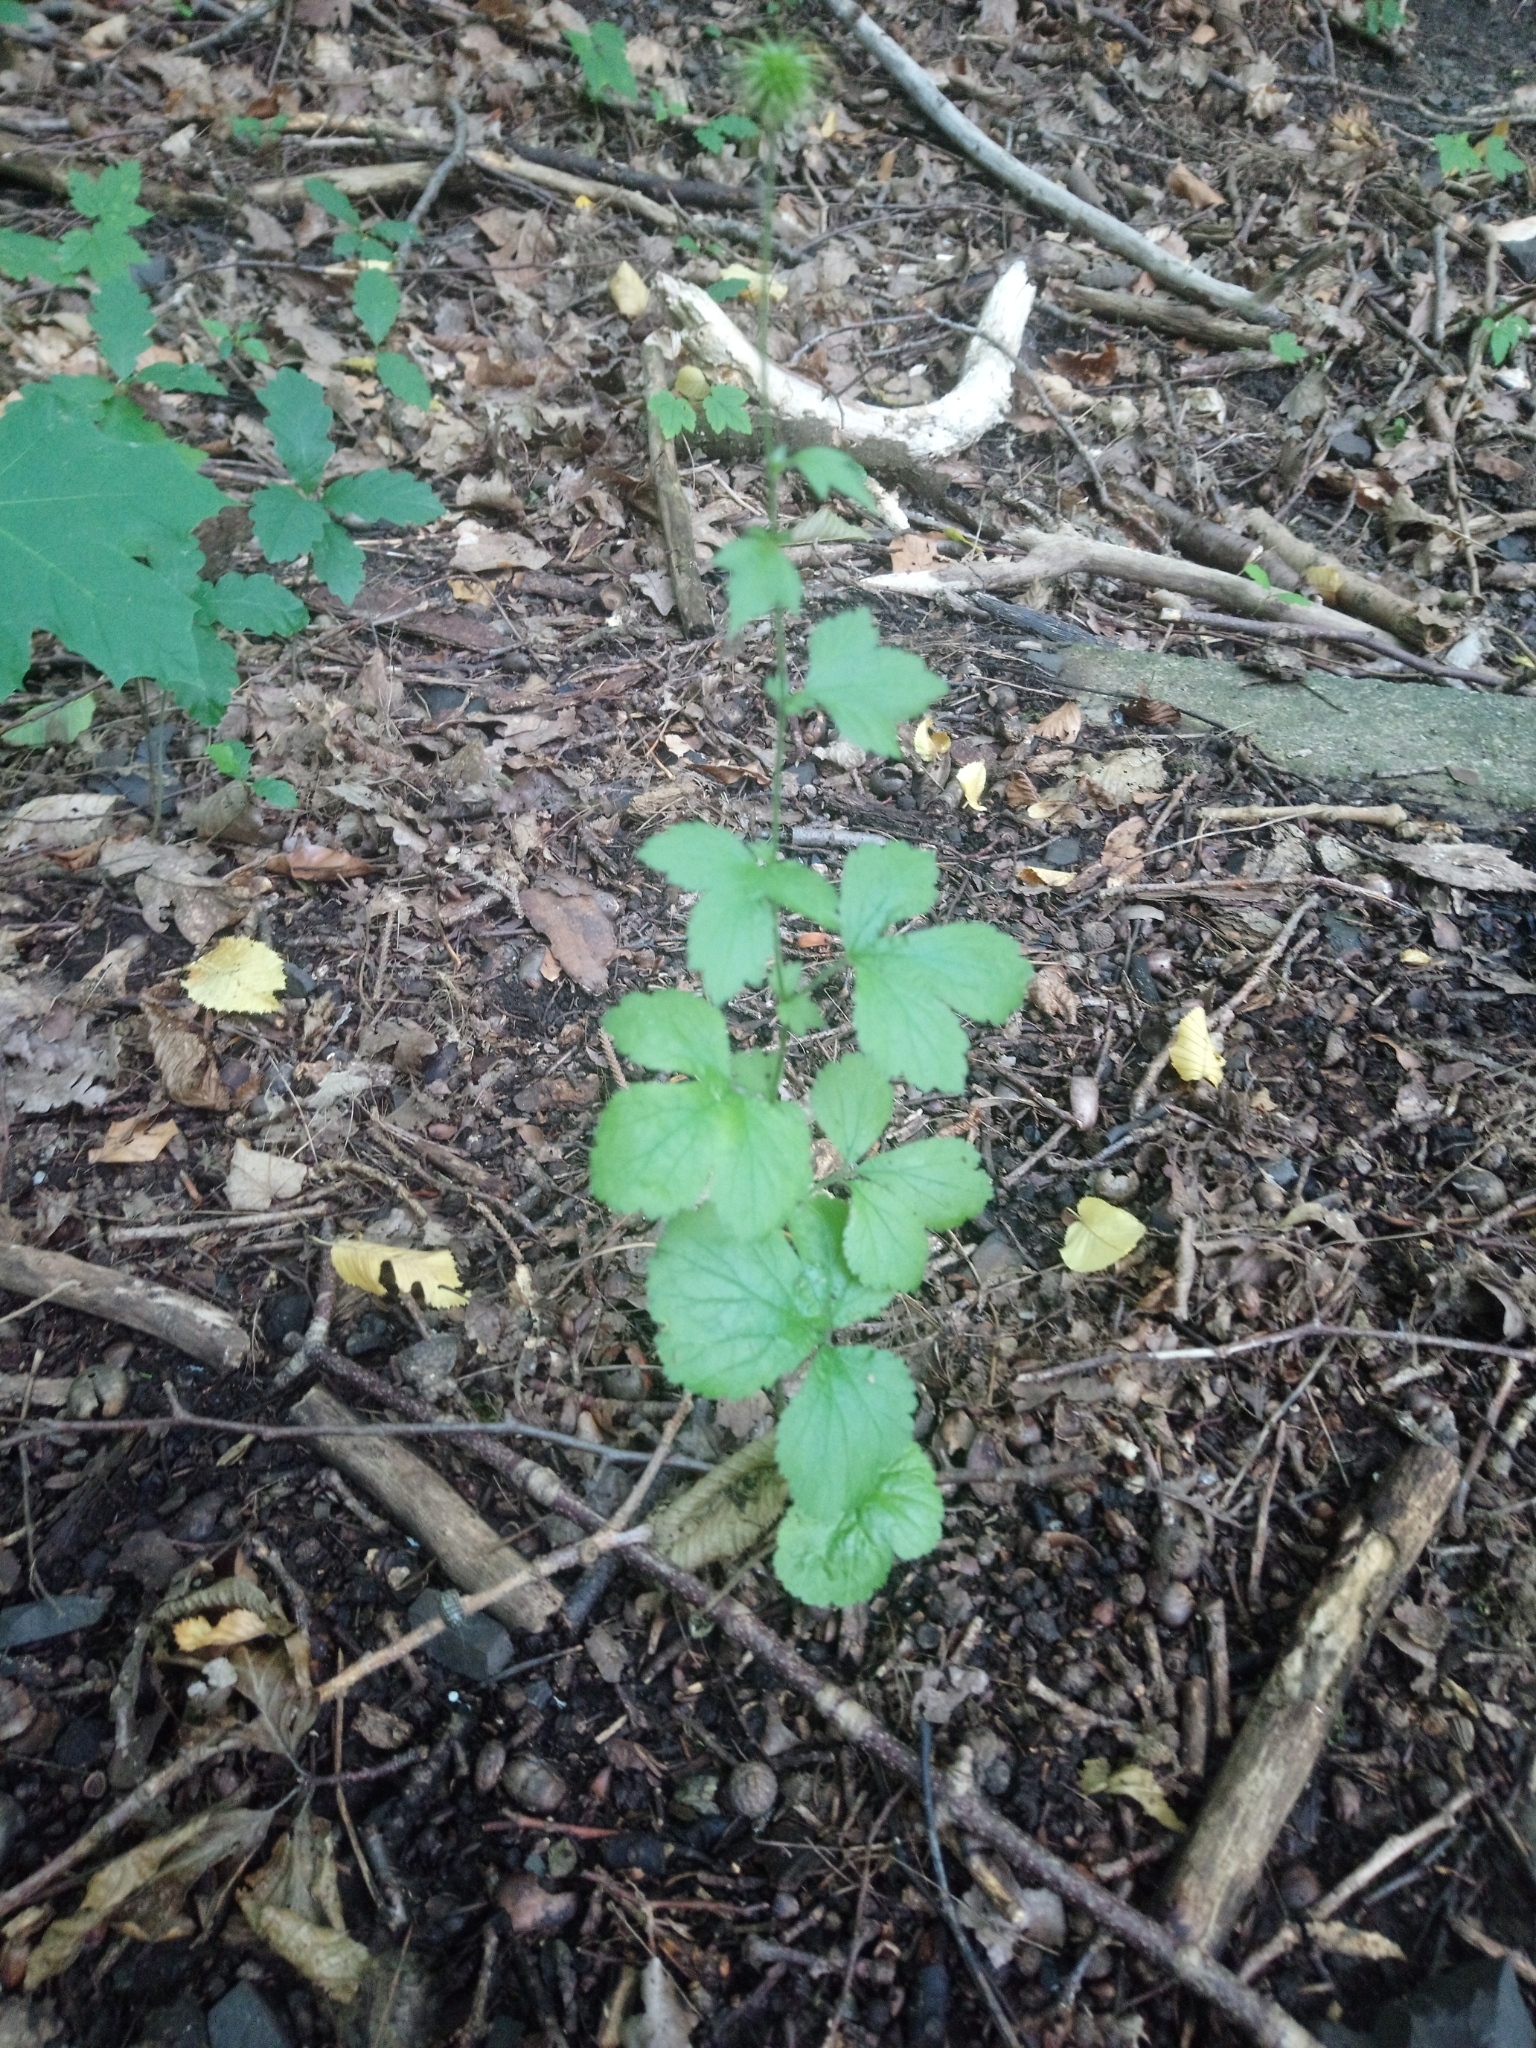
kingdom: Plantae
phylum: Tracheophyta
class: Magnoliopsida
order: Rosales
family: Rosaceae
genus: Geum
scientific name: Geum urbanum
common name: Wood avens
